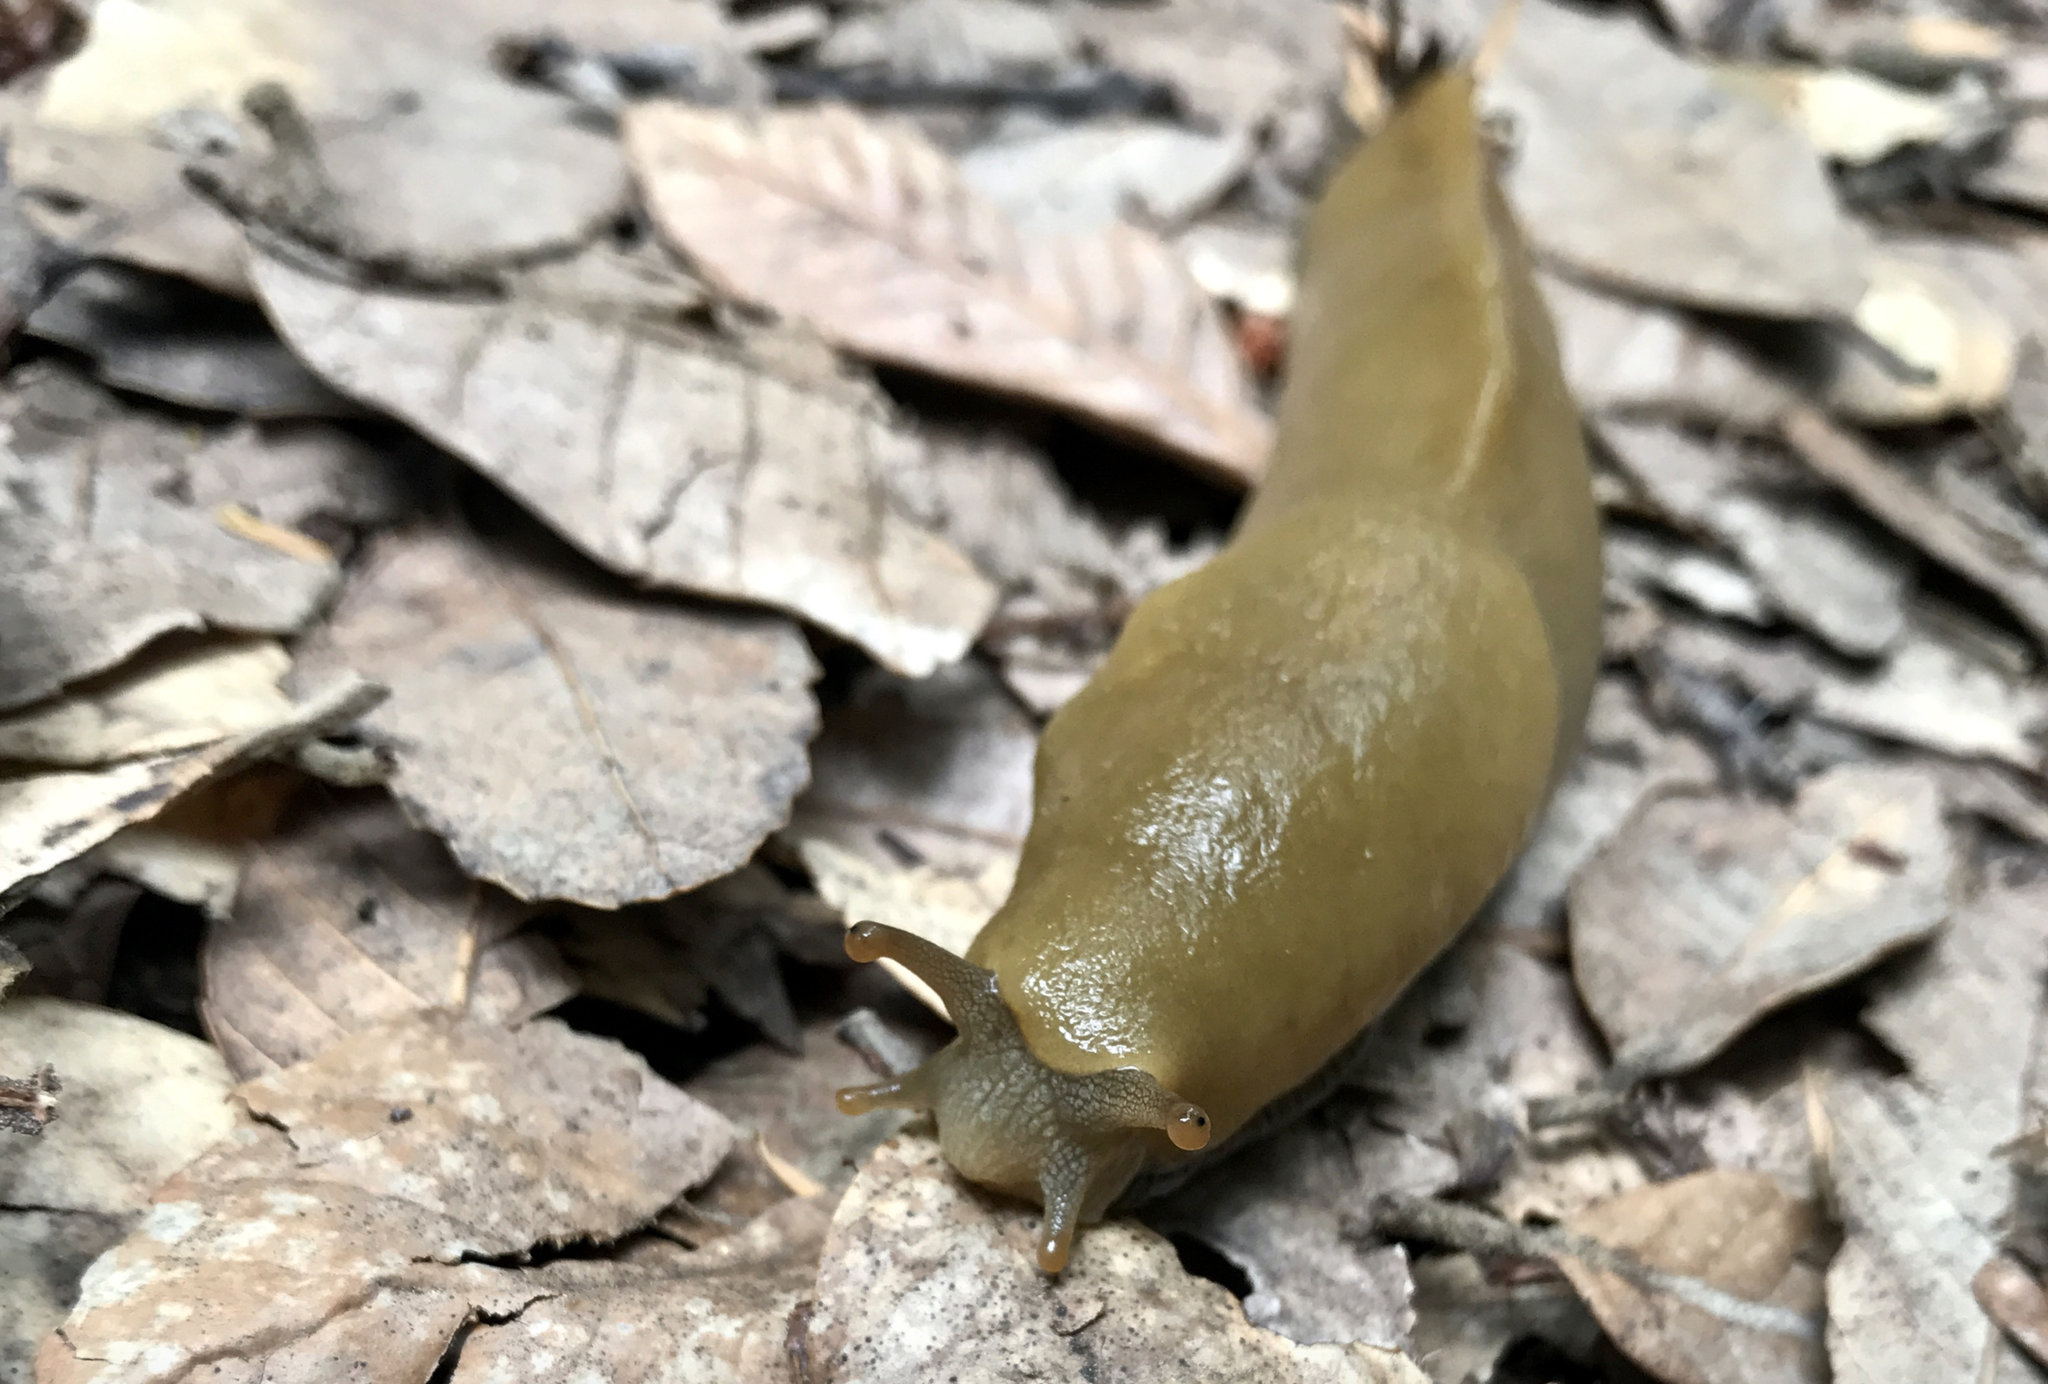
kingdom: Animalia
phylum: Mollusca
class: Gastropoda
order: Stylommatophora
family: Ariolimacidae
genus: Ariolimax
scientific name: Ariolimax buttoni
